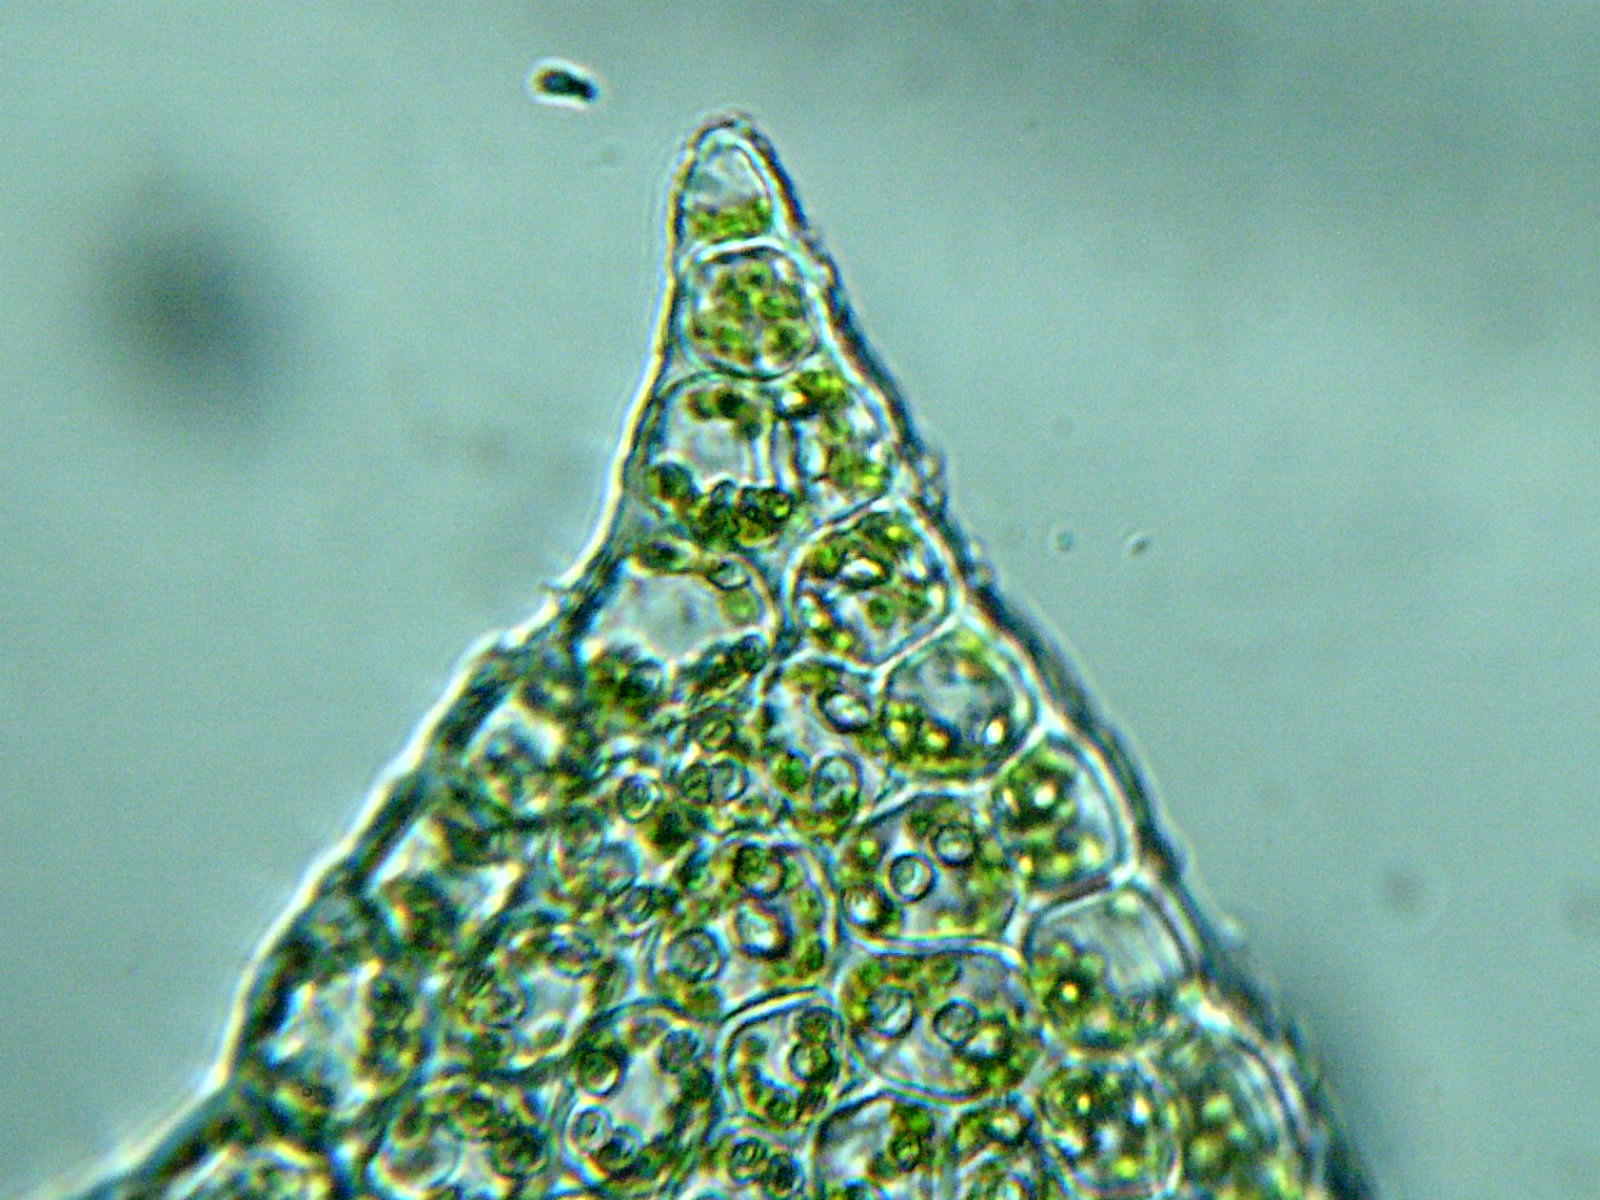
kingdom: Plantae
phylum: Marchantiophyta
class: Jungermanniopsida
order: Jungermanniales
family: Scapaniaceae
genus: Scapania
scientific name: Scapania apiculata
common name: Pointed earwort
